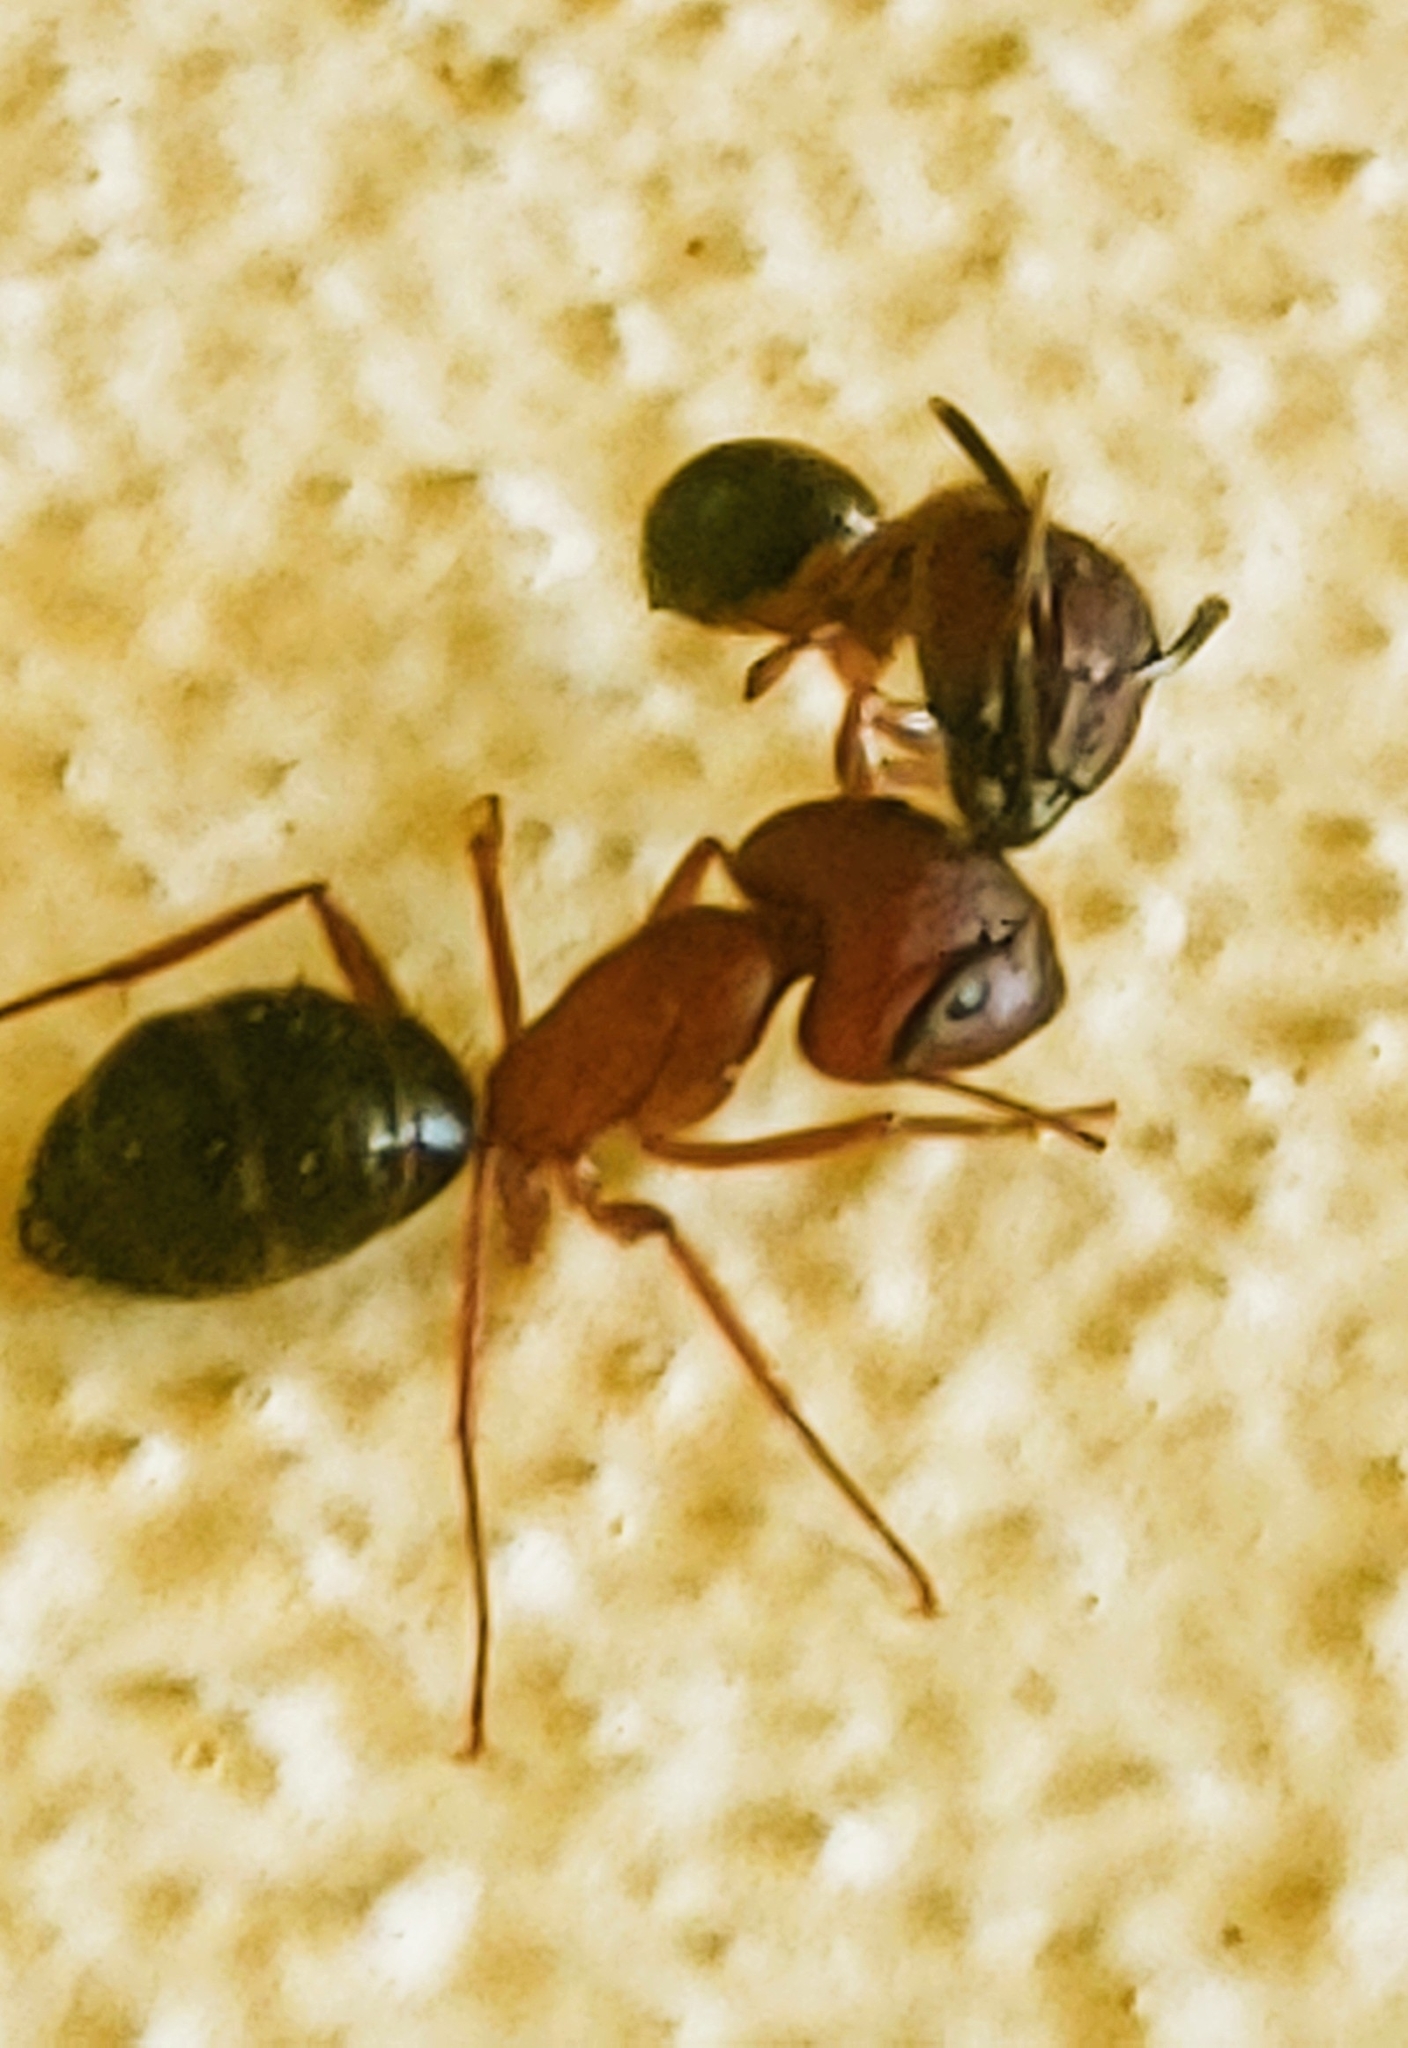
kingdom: Animalia
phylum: Arthropoda
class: Insecta
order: Hymenoptera
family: Formicidae
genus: Camponotus
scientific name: Camponotus floridanus
